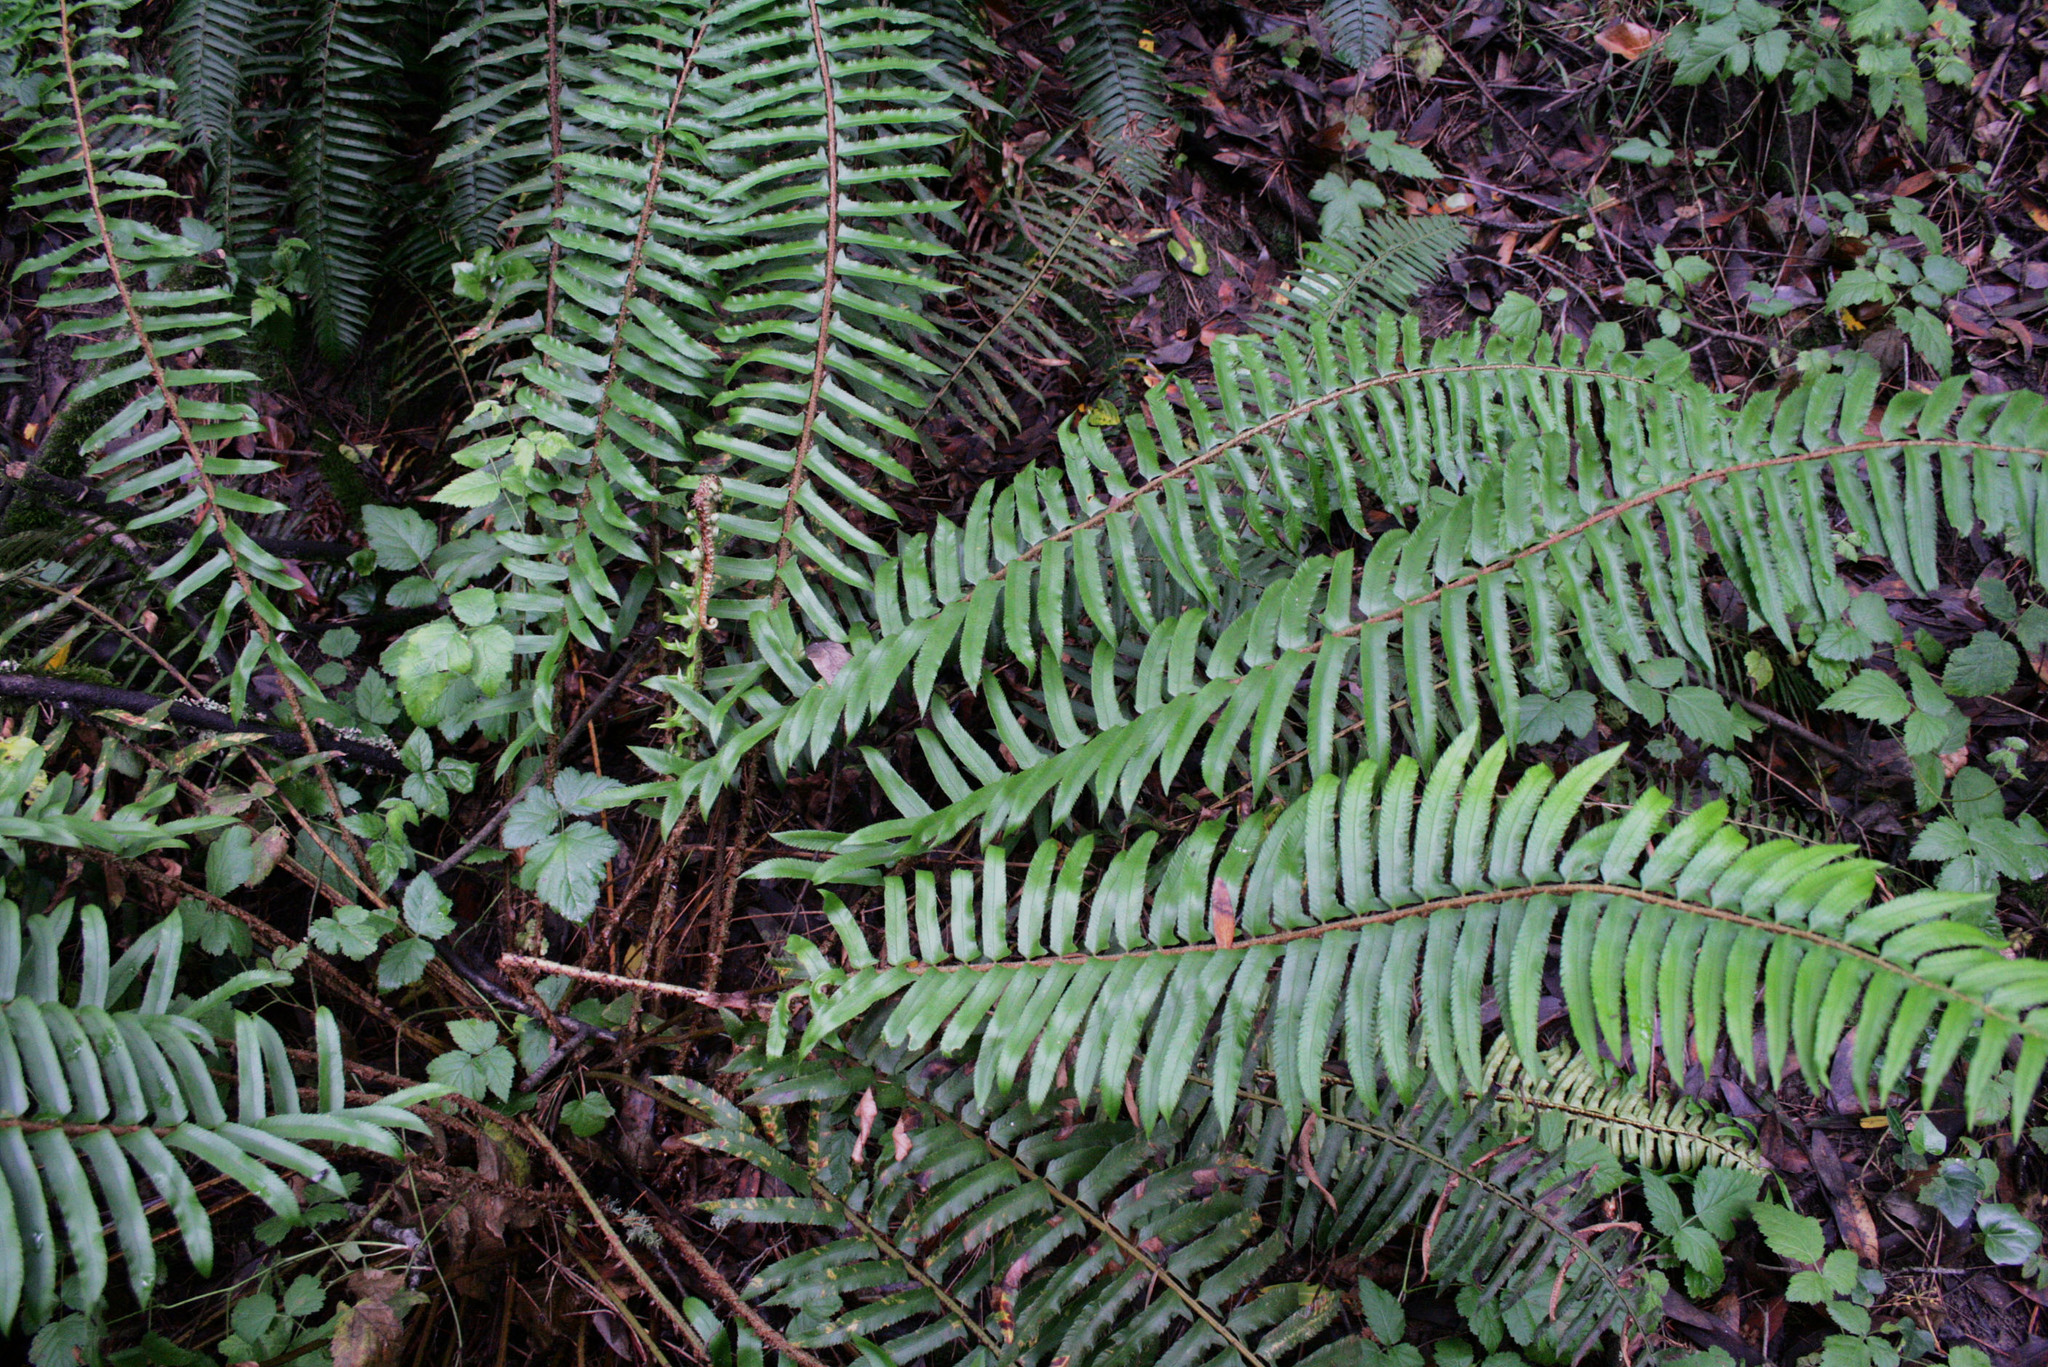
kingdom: Plantae
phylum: Tracheophyta
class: Polypodiopsida
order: Polypodiales
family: Dryopteridaceae
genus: Polystichum
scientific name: Polystichum munitum
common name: Western sword-fern
